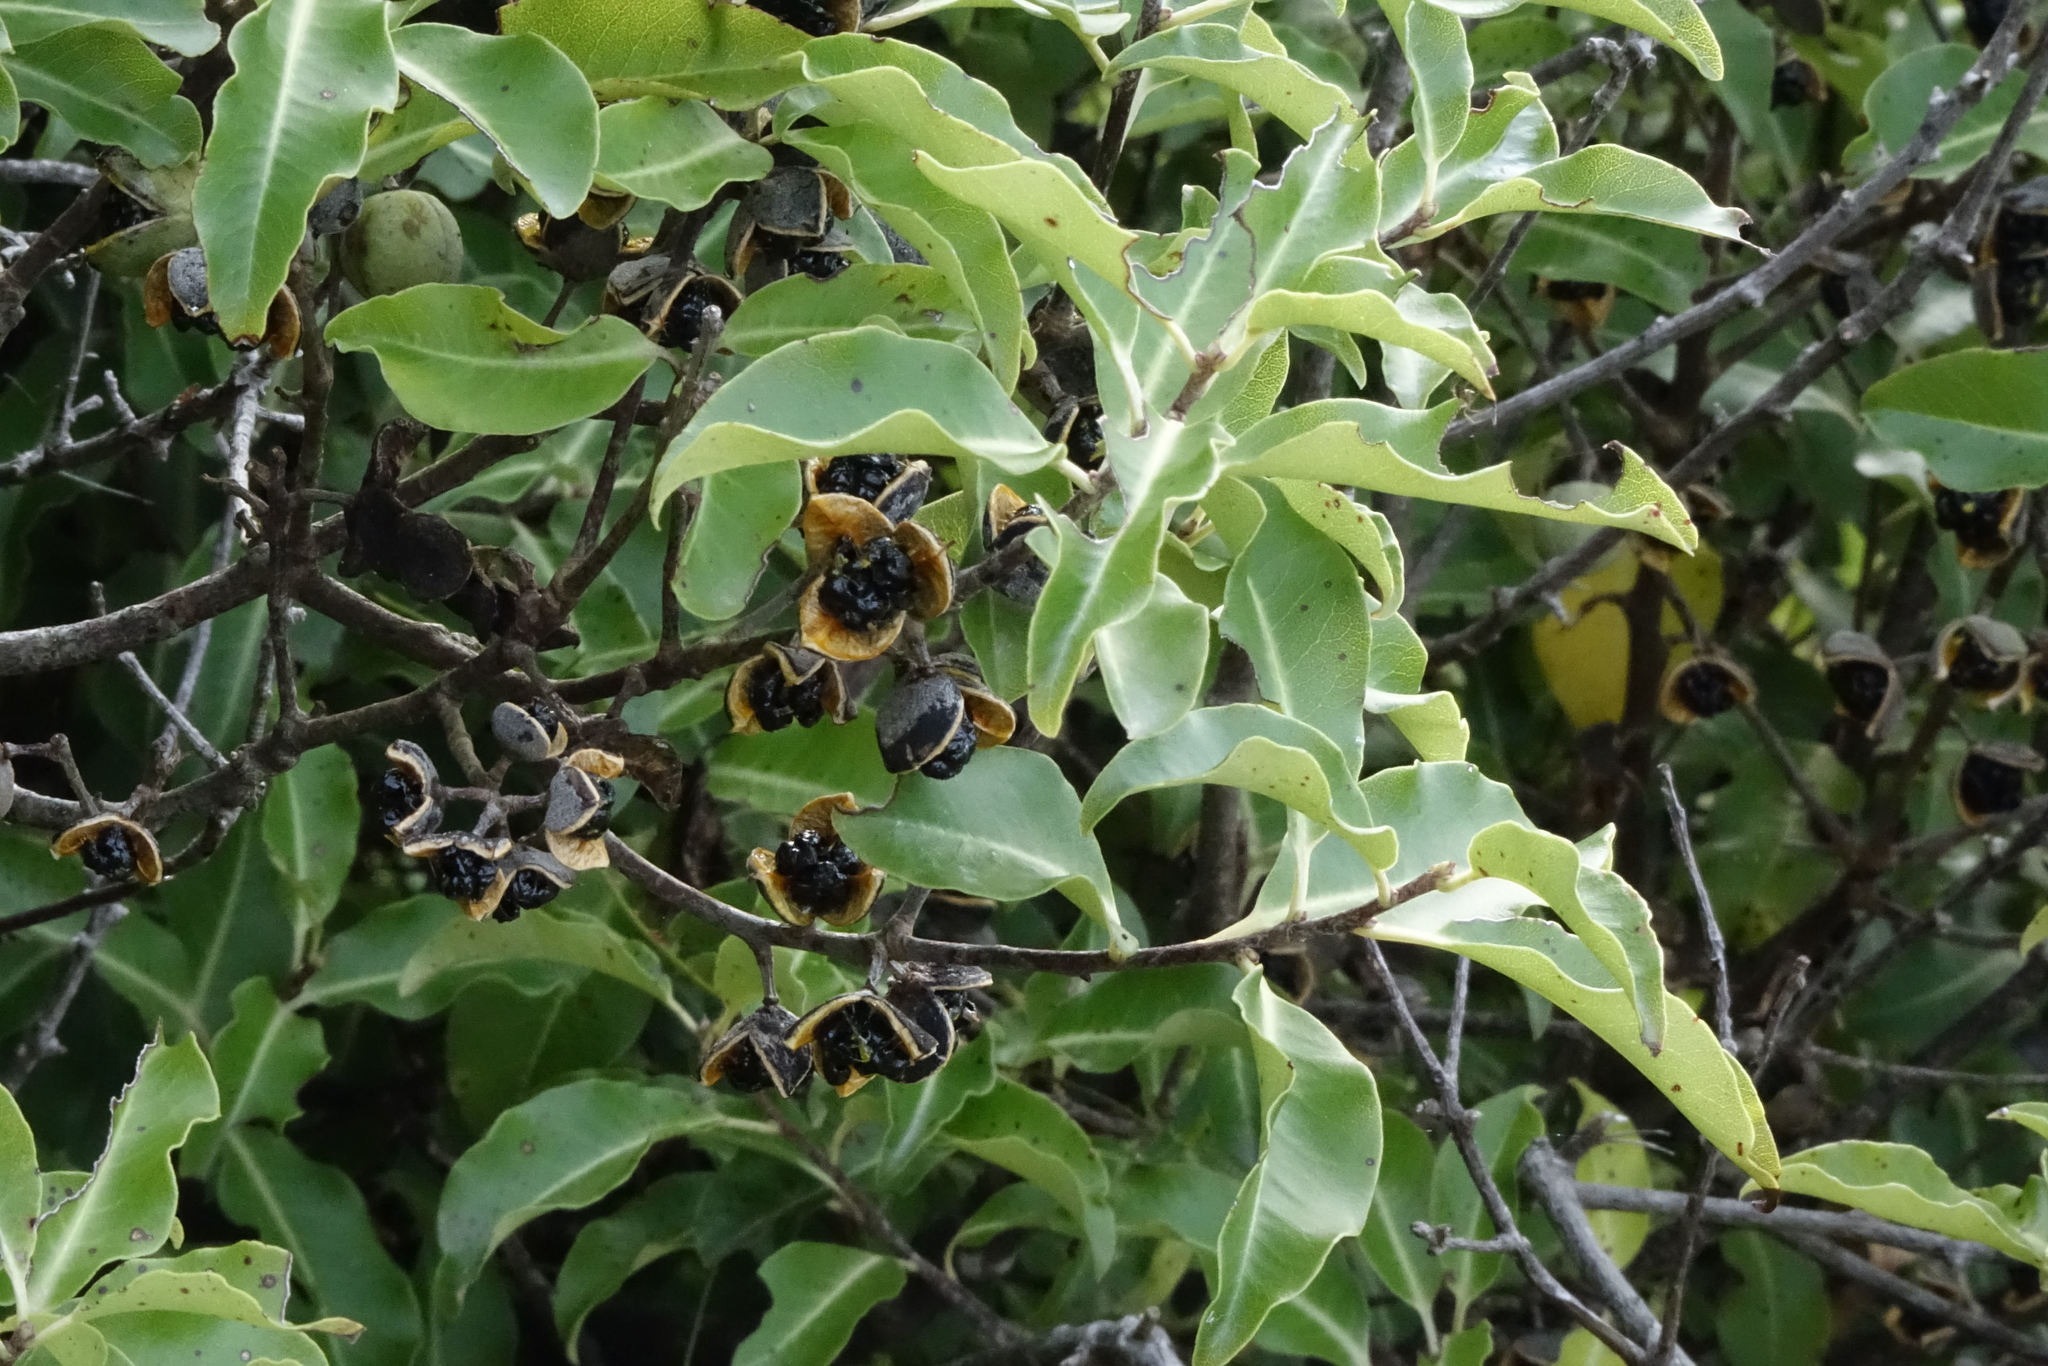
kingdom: Plantae
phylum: Tracheophyta
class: Magnoliopsida
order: Apiales
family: Pittosporaceae
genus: Pittosporum
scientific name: Pittosporum tenuifolium
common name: Kohuhu
